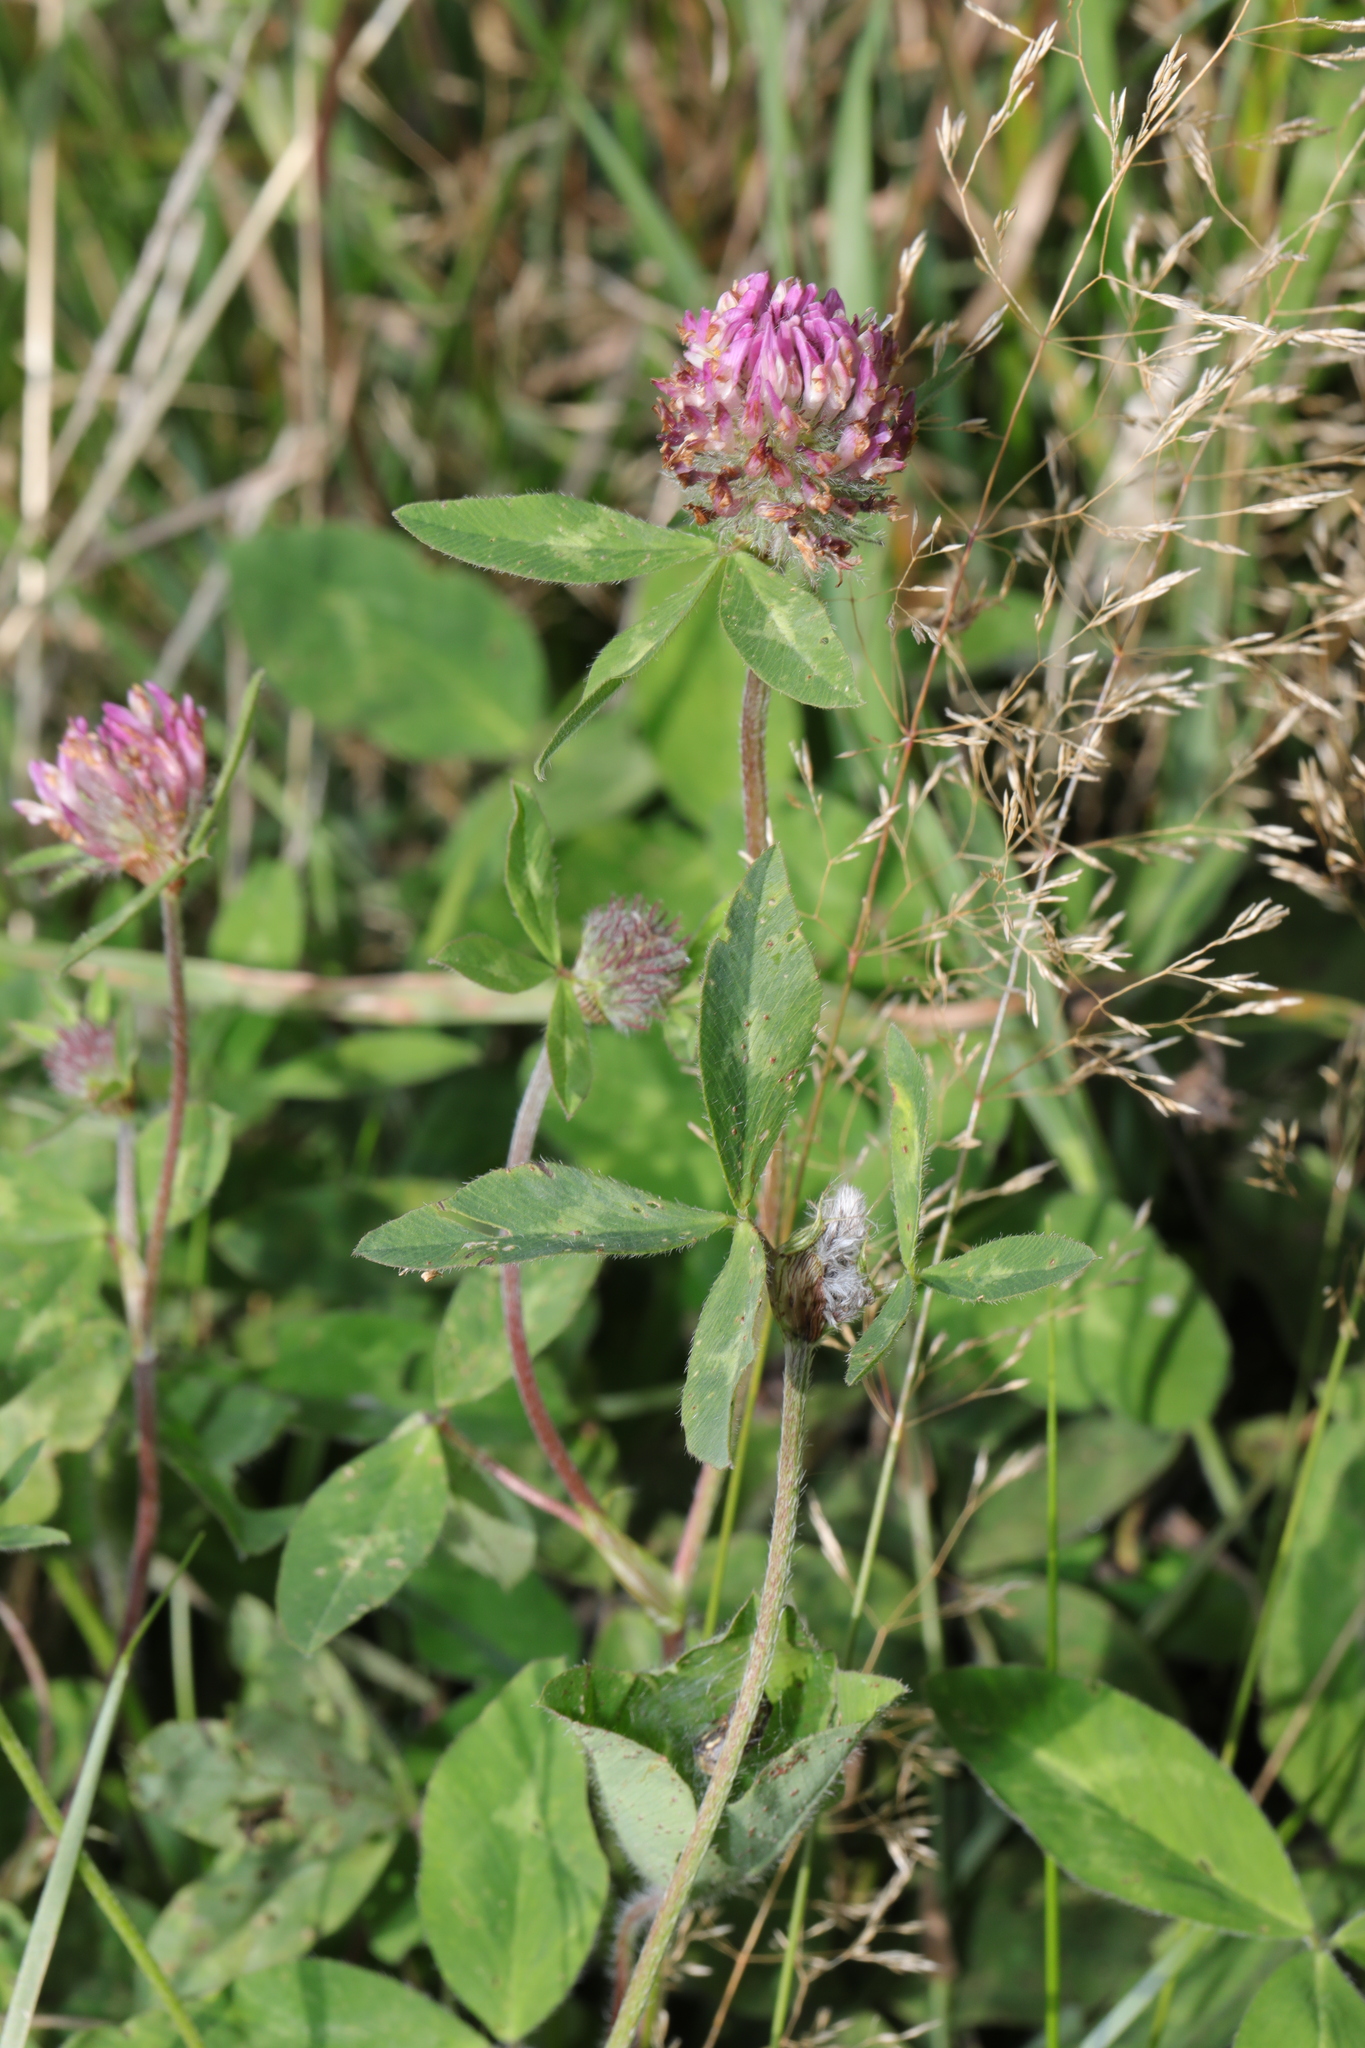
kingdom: Plantae
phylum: Tracheophyta
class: Magnoliopsida
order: Fabales
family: Fabaceae
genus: Trifolium
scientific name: Trifolium pratense
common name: Red clover
